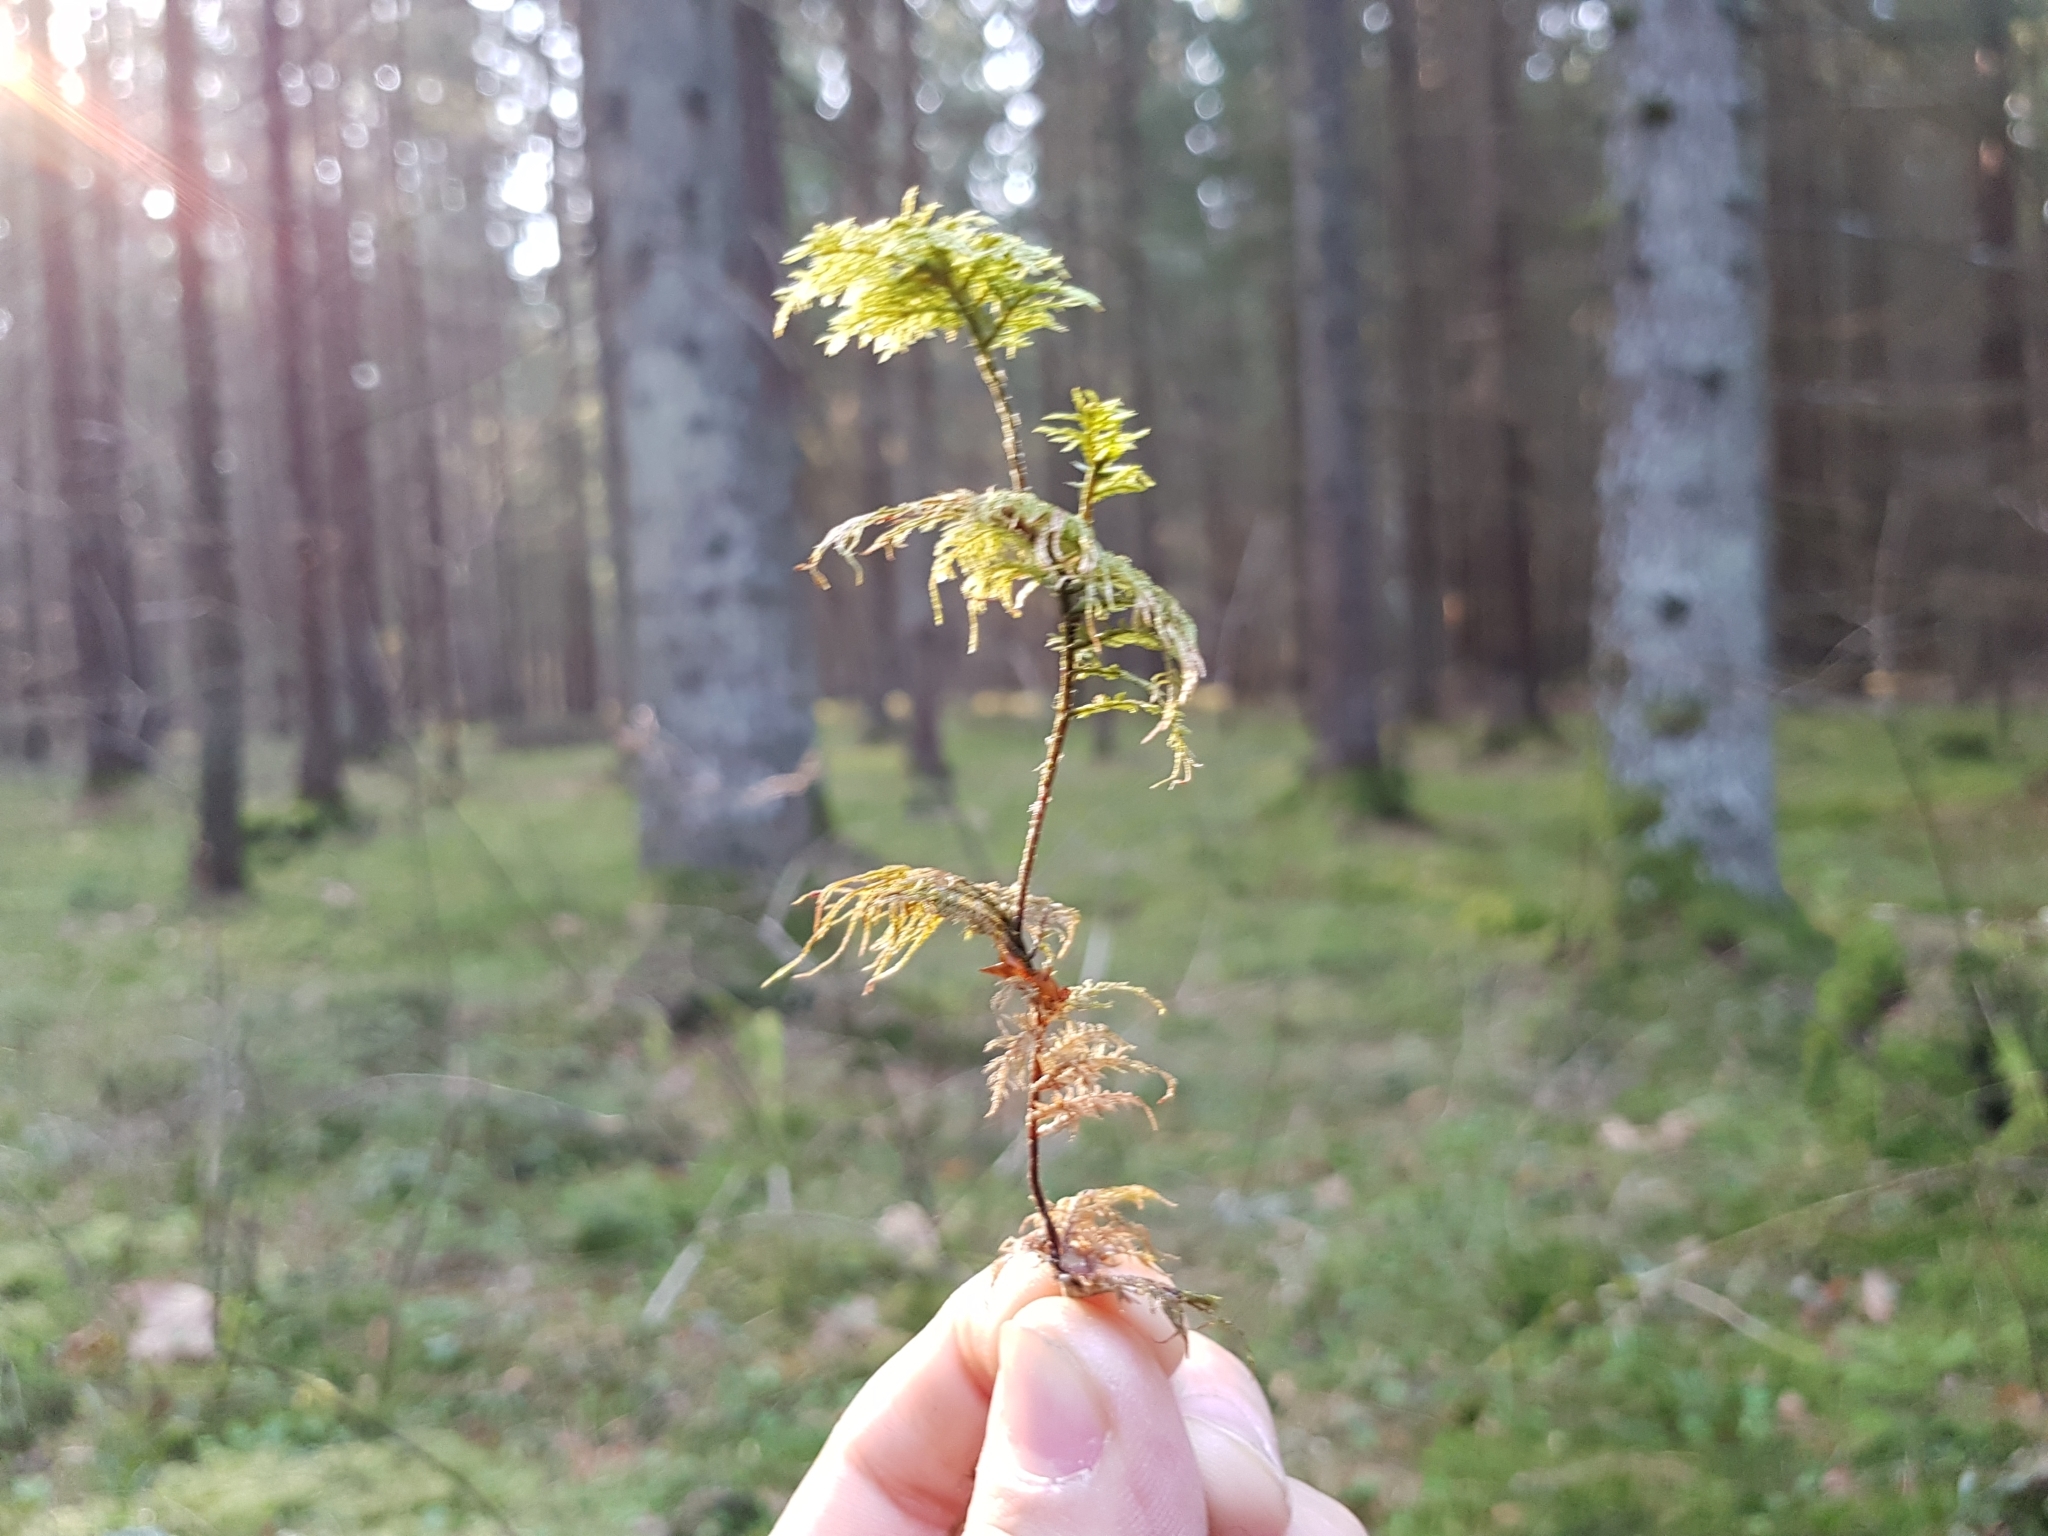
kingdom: Plantae
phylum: Bryophyta
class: Bryopsida
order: Hypnales
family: Hylocomiaceae
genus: Hylocomium
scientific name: Hylocomium splendens
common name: Stairstep moss
